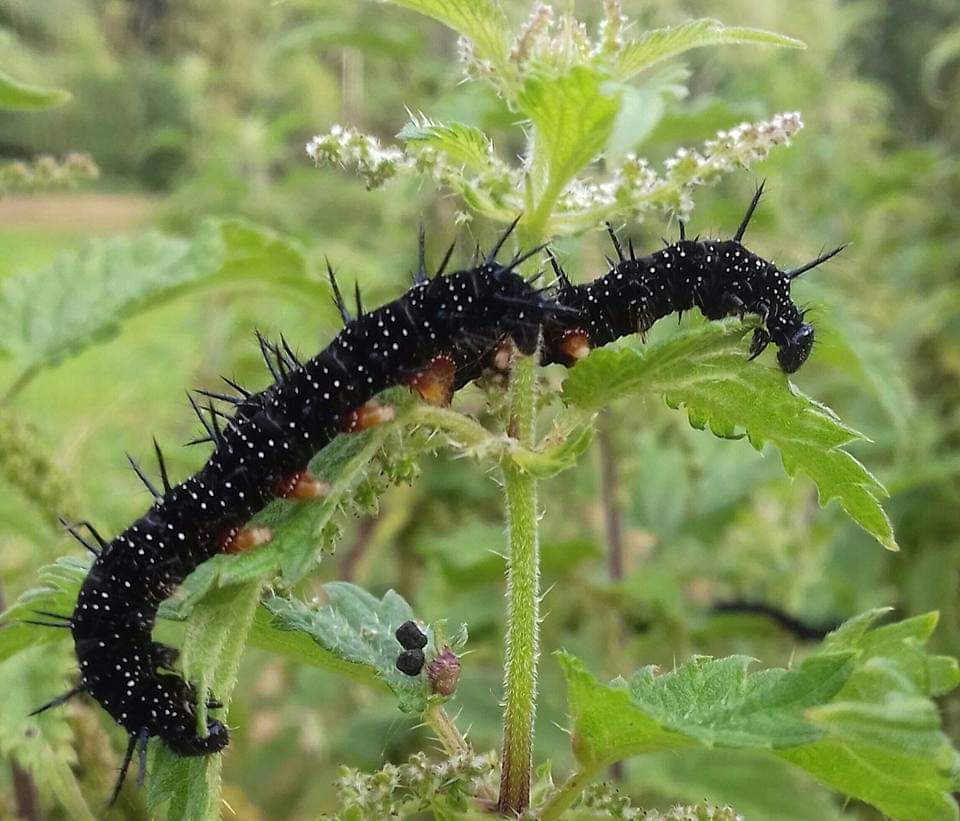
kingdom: Animalia
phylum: Arthropoda
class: Insecta
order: Lepidoptera
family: Nymphalidae
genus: Aglais
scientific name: Aglais io
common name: Peacock
